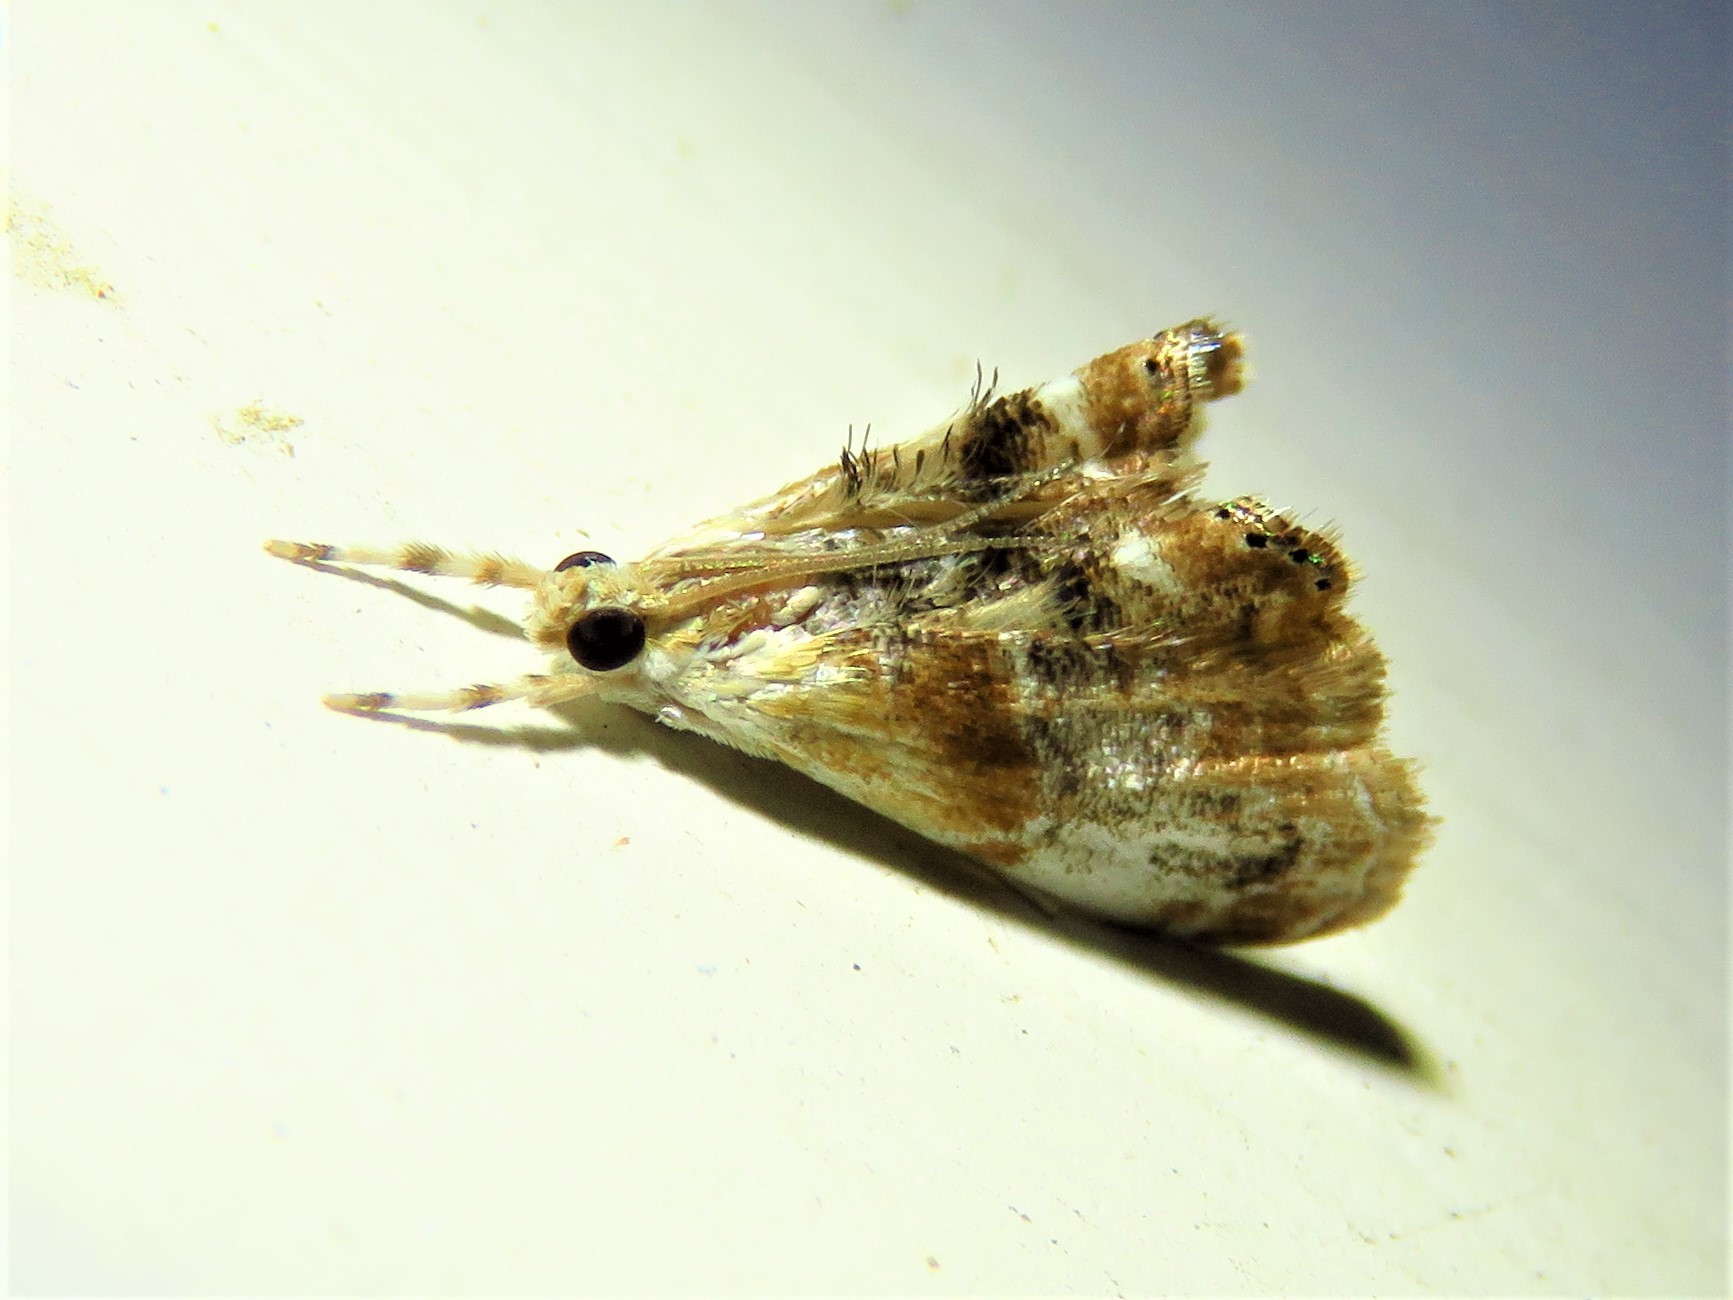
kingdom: Animalia
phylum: Arthropoda
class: Insecta
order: Lepidoptera
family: Crambidae
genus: Dicymolomia
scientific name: Dicymolomia julianalis
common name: Julia's dicymolomia moth
